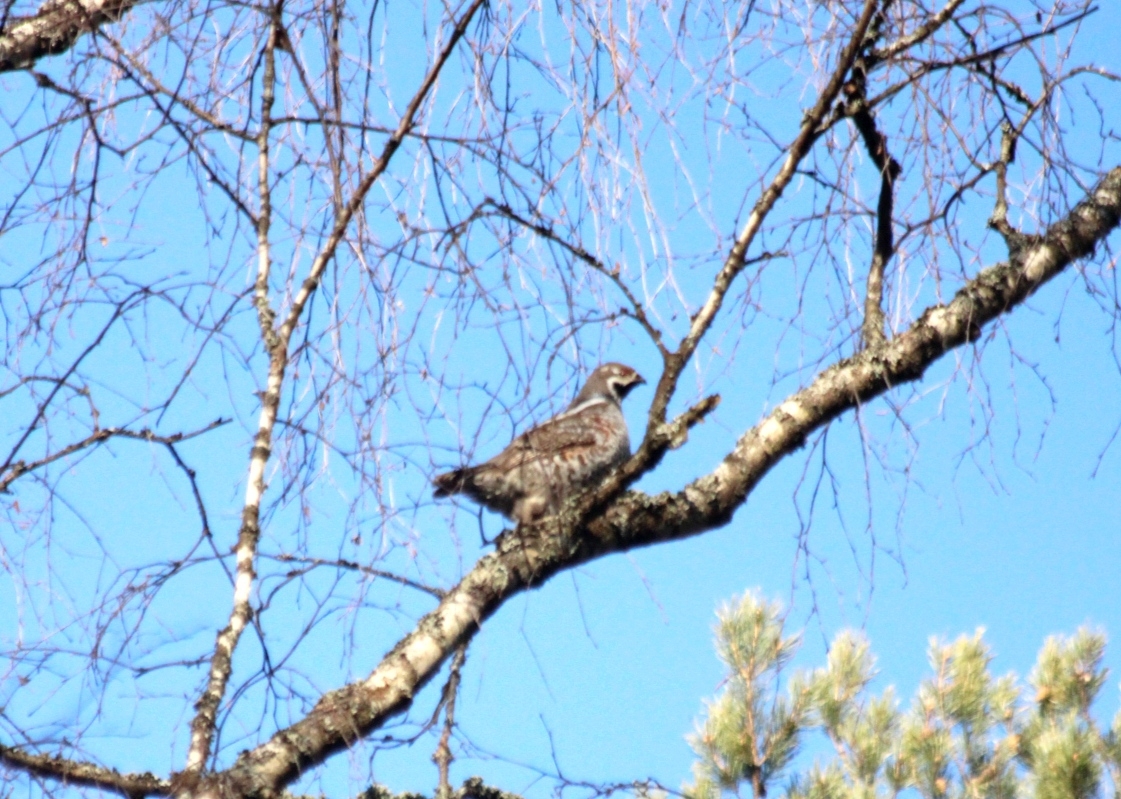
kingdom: Animalia
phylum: Chordata
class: Aves
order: Galliformes
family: Phasianidae
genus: Tetrastes
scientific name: Tetrastes bonasia
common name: Hazel grouse
